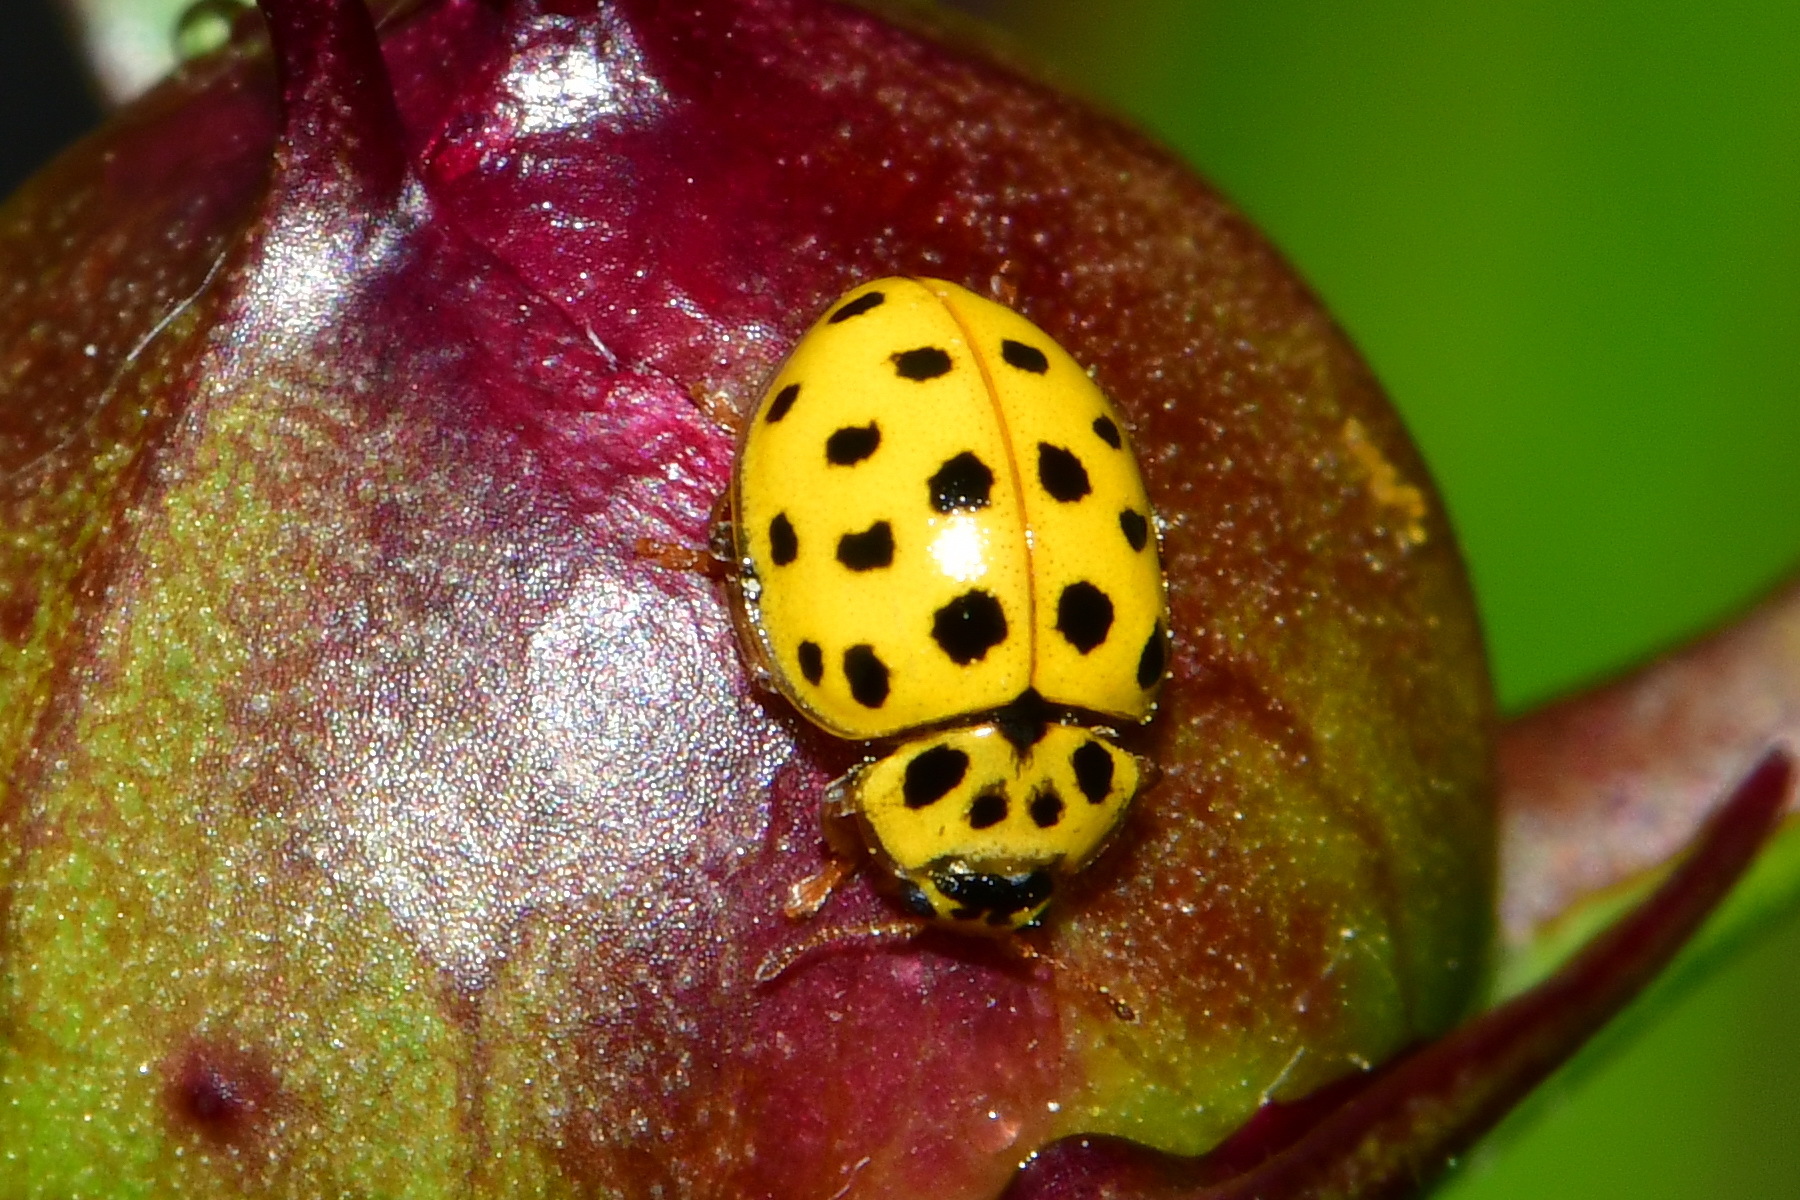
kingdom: Animalia
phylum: Arthropoda
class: Insecta
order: Coleoptera
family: Coccinellidae
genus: Psyllobora
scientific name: Psyllobora vigintiduopunctata
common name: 22-spot ladybird
